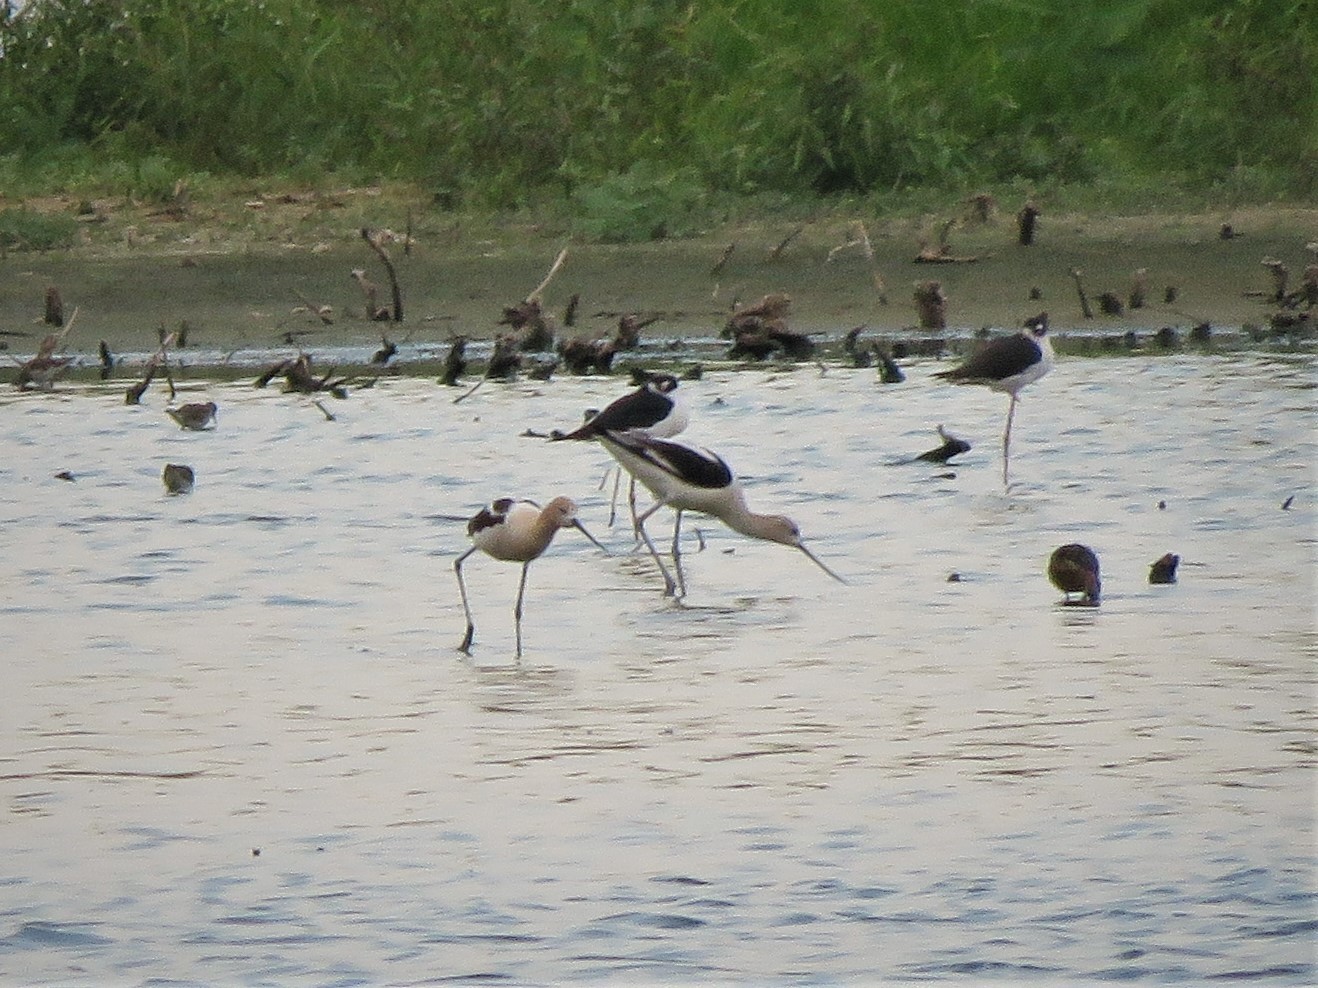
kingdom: Animalia
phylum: Chordata
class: Aves
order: Charadriiformes
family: Recurvirostridae
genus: Recurvirostra
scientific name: Recurvirostra americana
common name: American avocet
